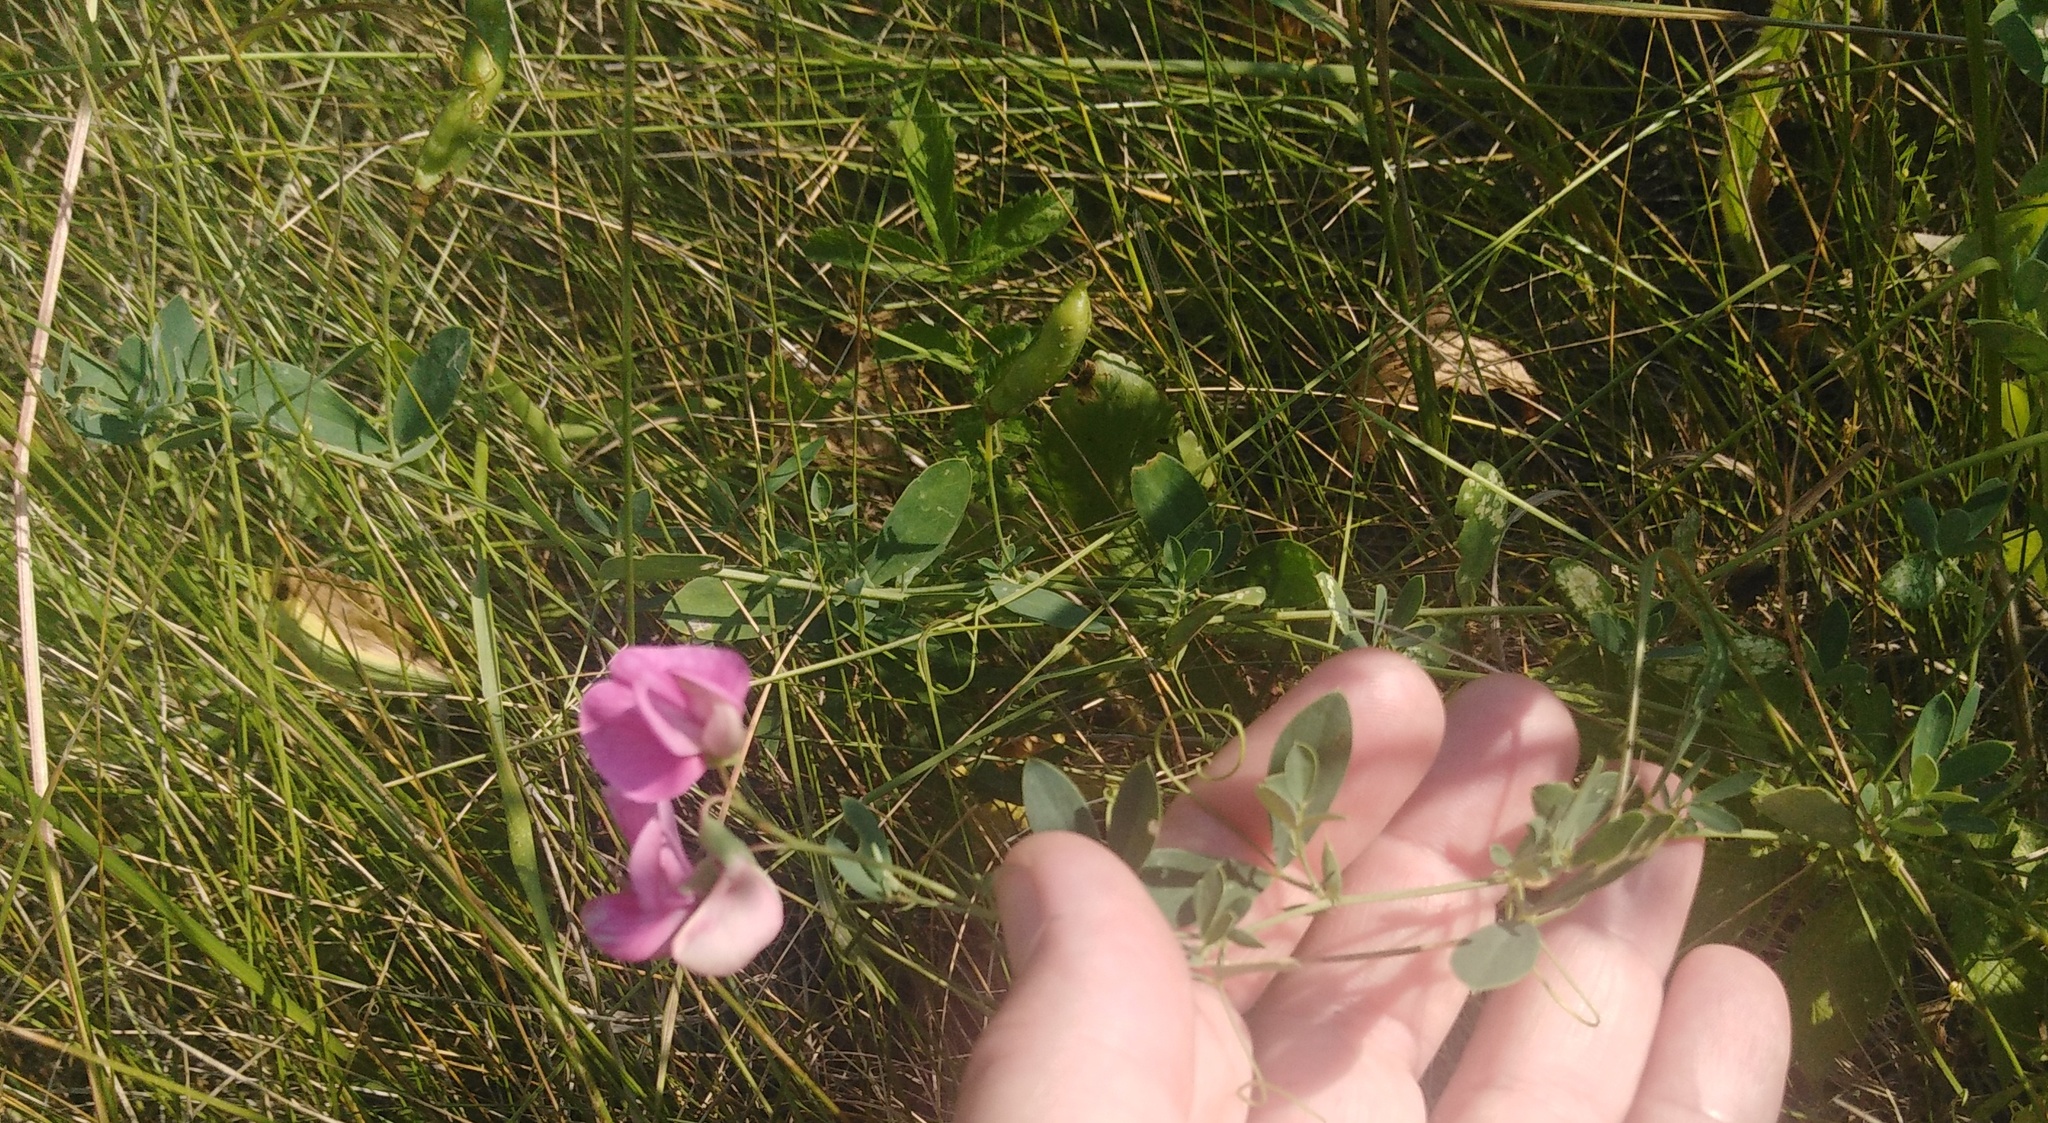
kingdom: Plantae
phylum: Tracheophyta
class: Magnoliopsida
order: Fabales
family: Fabaceae
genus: Lathyrus
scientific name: Lathyrus tuberosus
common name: Tuberous pea
